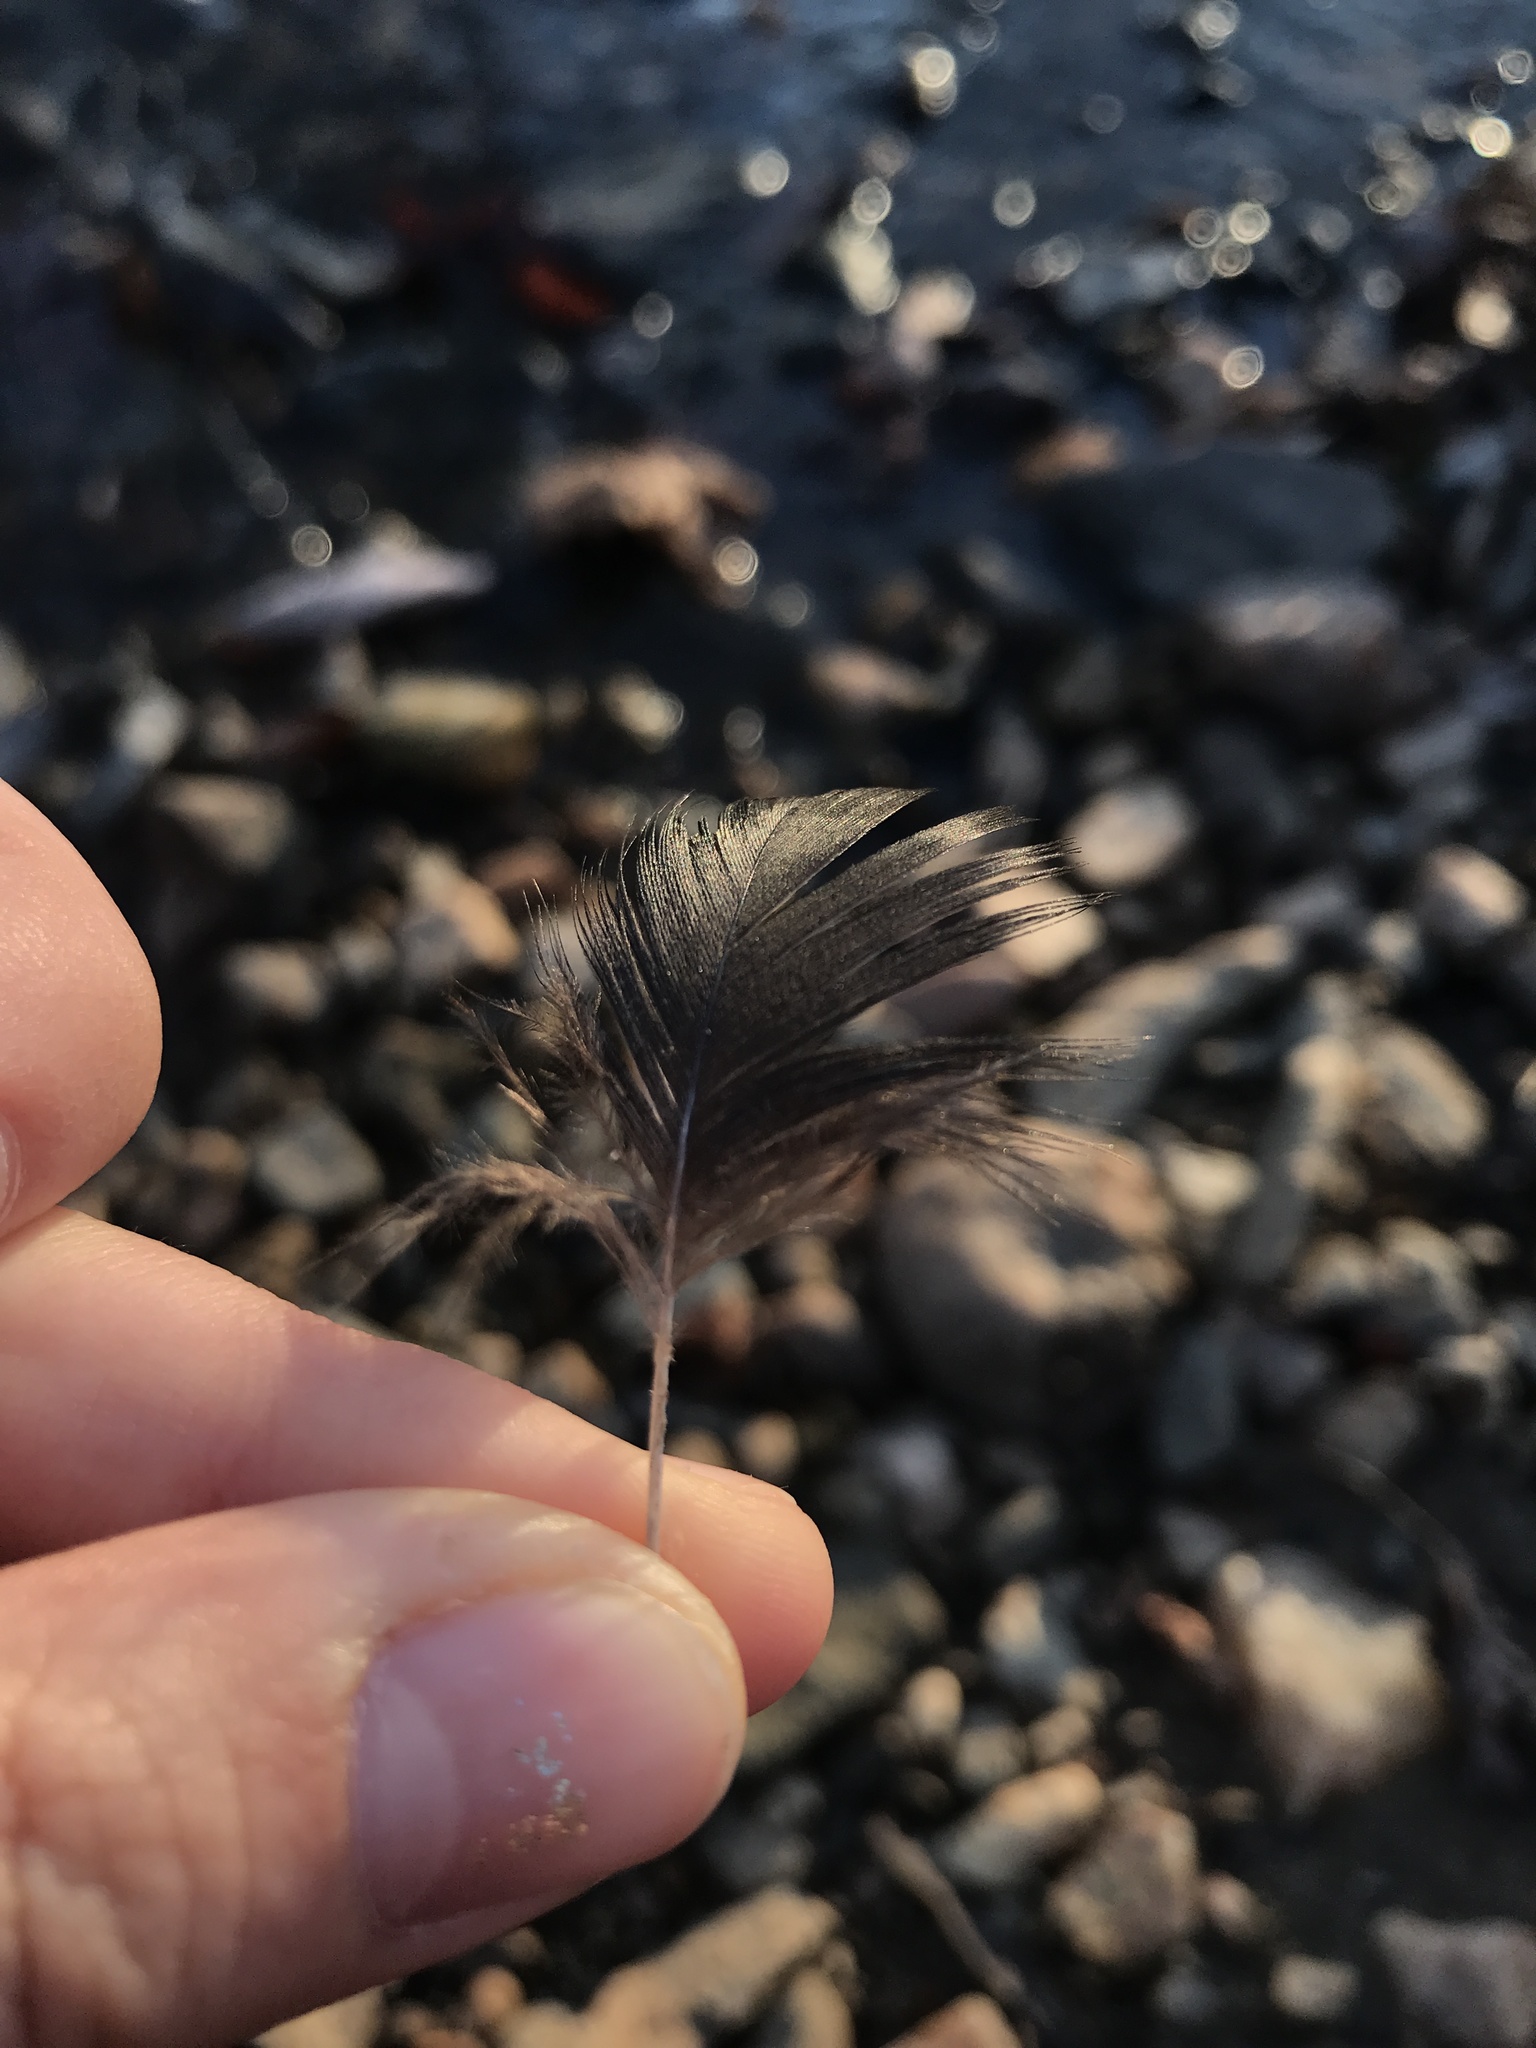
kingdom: Animalia
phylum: Chordata
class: Aves
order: Accipitriformes
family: Cathartidae
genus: Coragyps
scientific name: Coragyps atratus
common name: Black vulture
